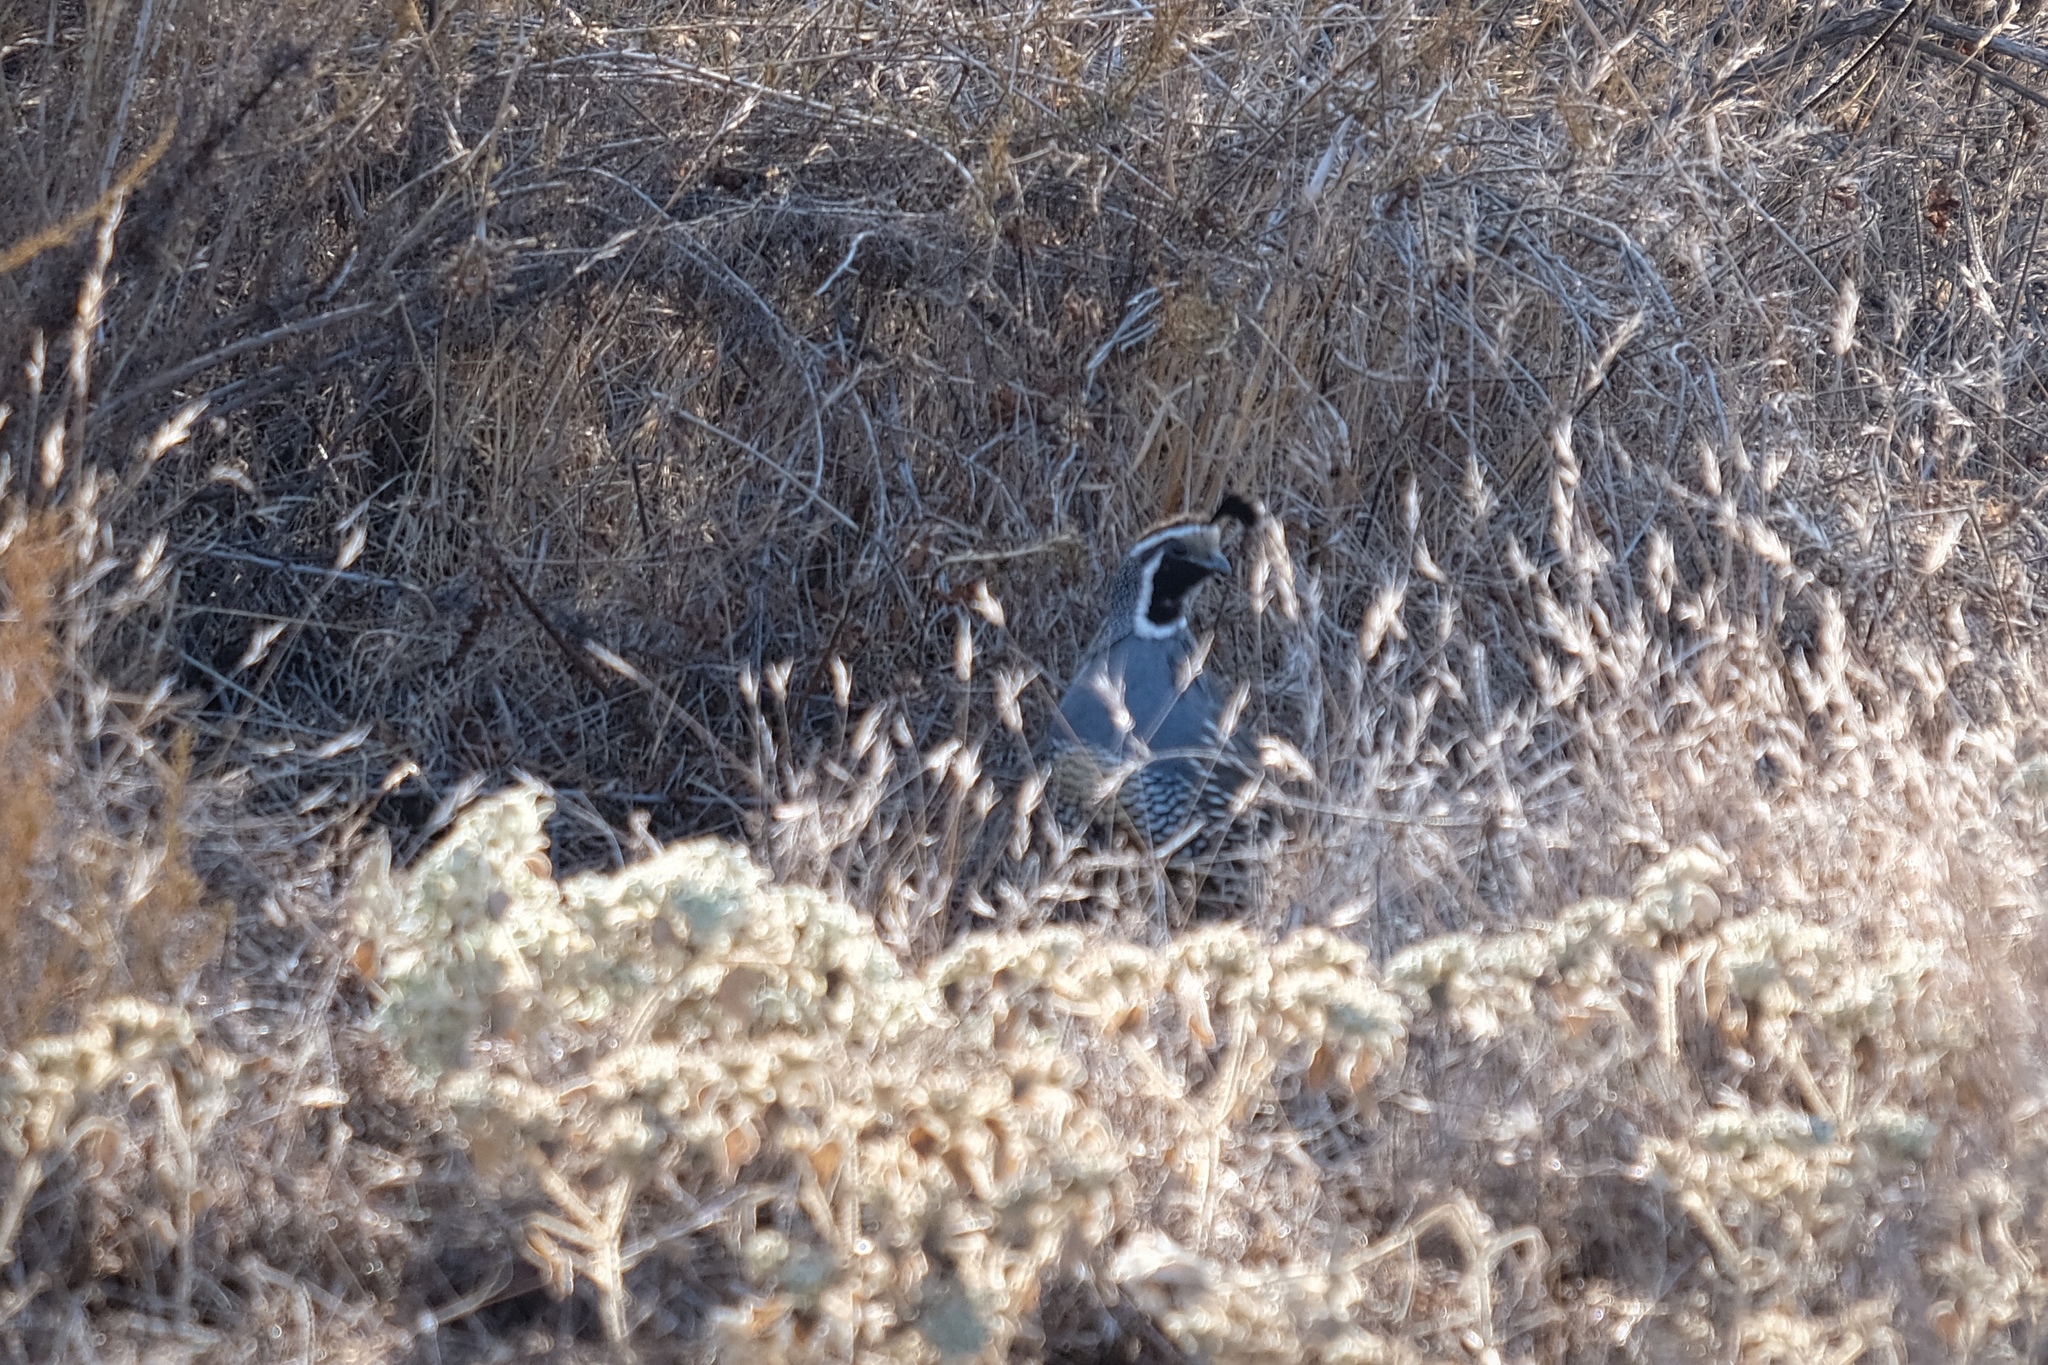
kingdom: Animalia
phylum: Chordata
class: Aves
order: Galliformes
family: Odontophoridae
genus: Callipepla
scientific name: Callipepla californica
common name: California quail
